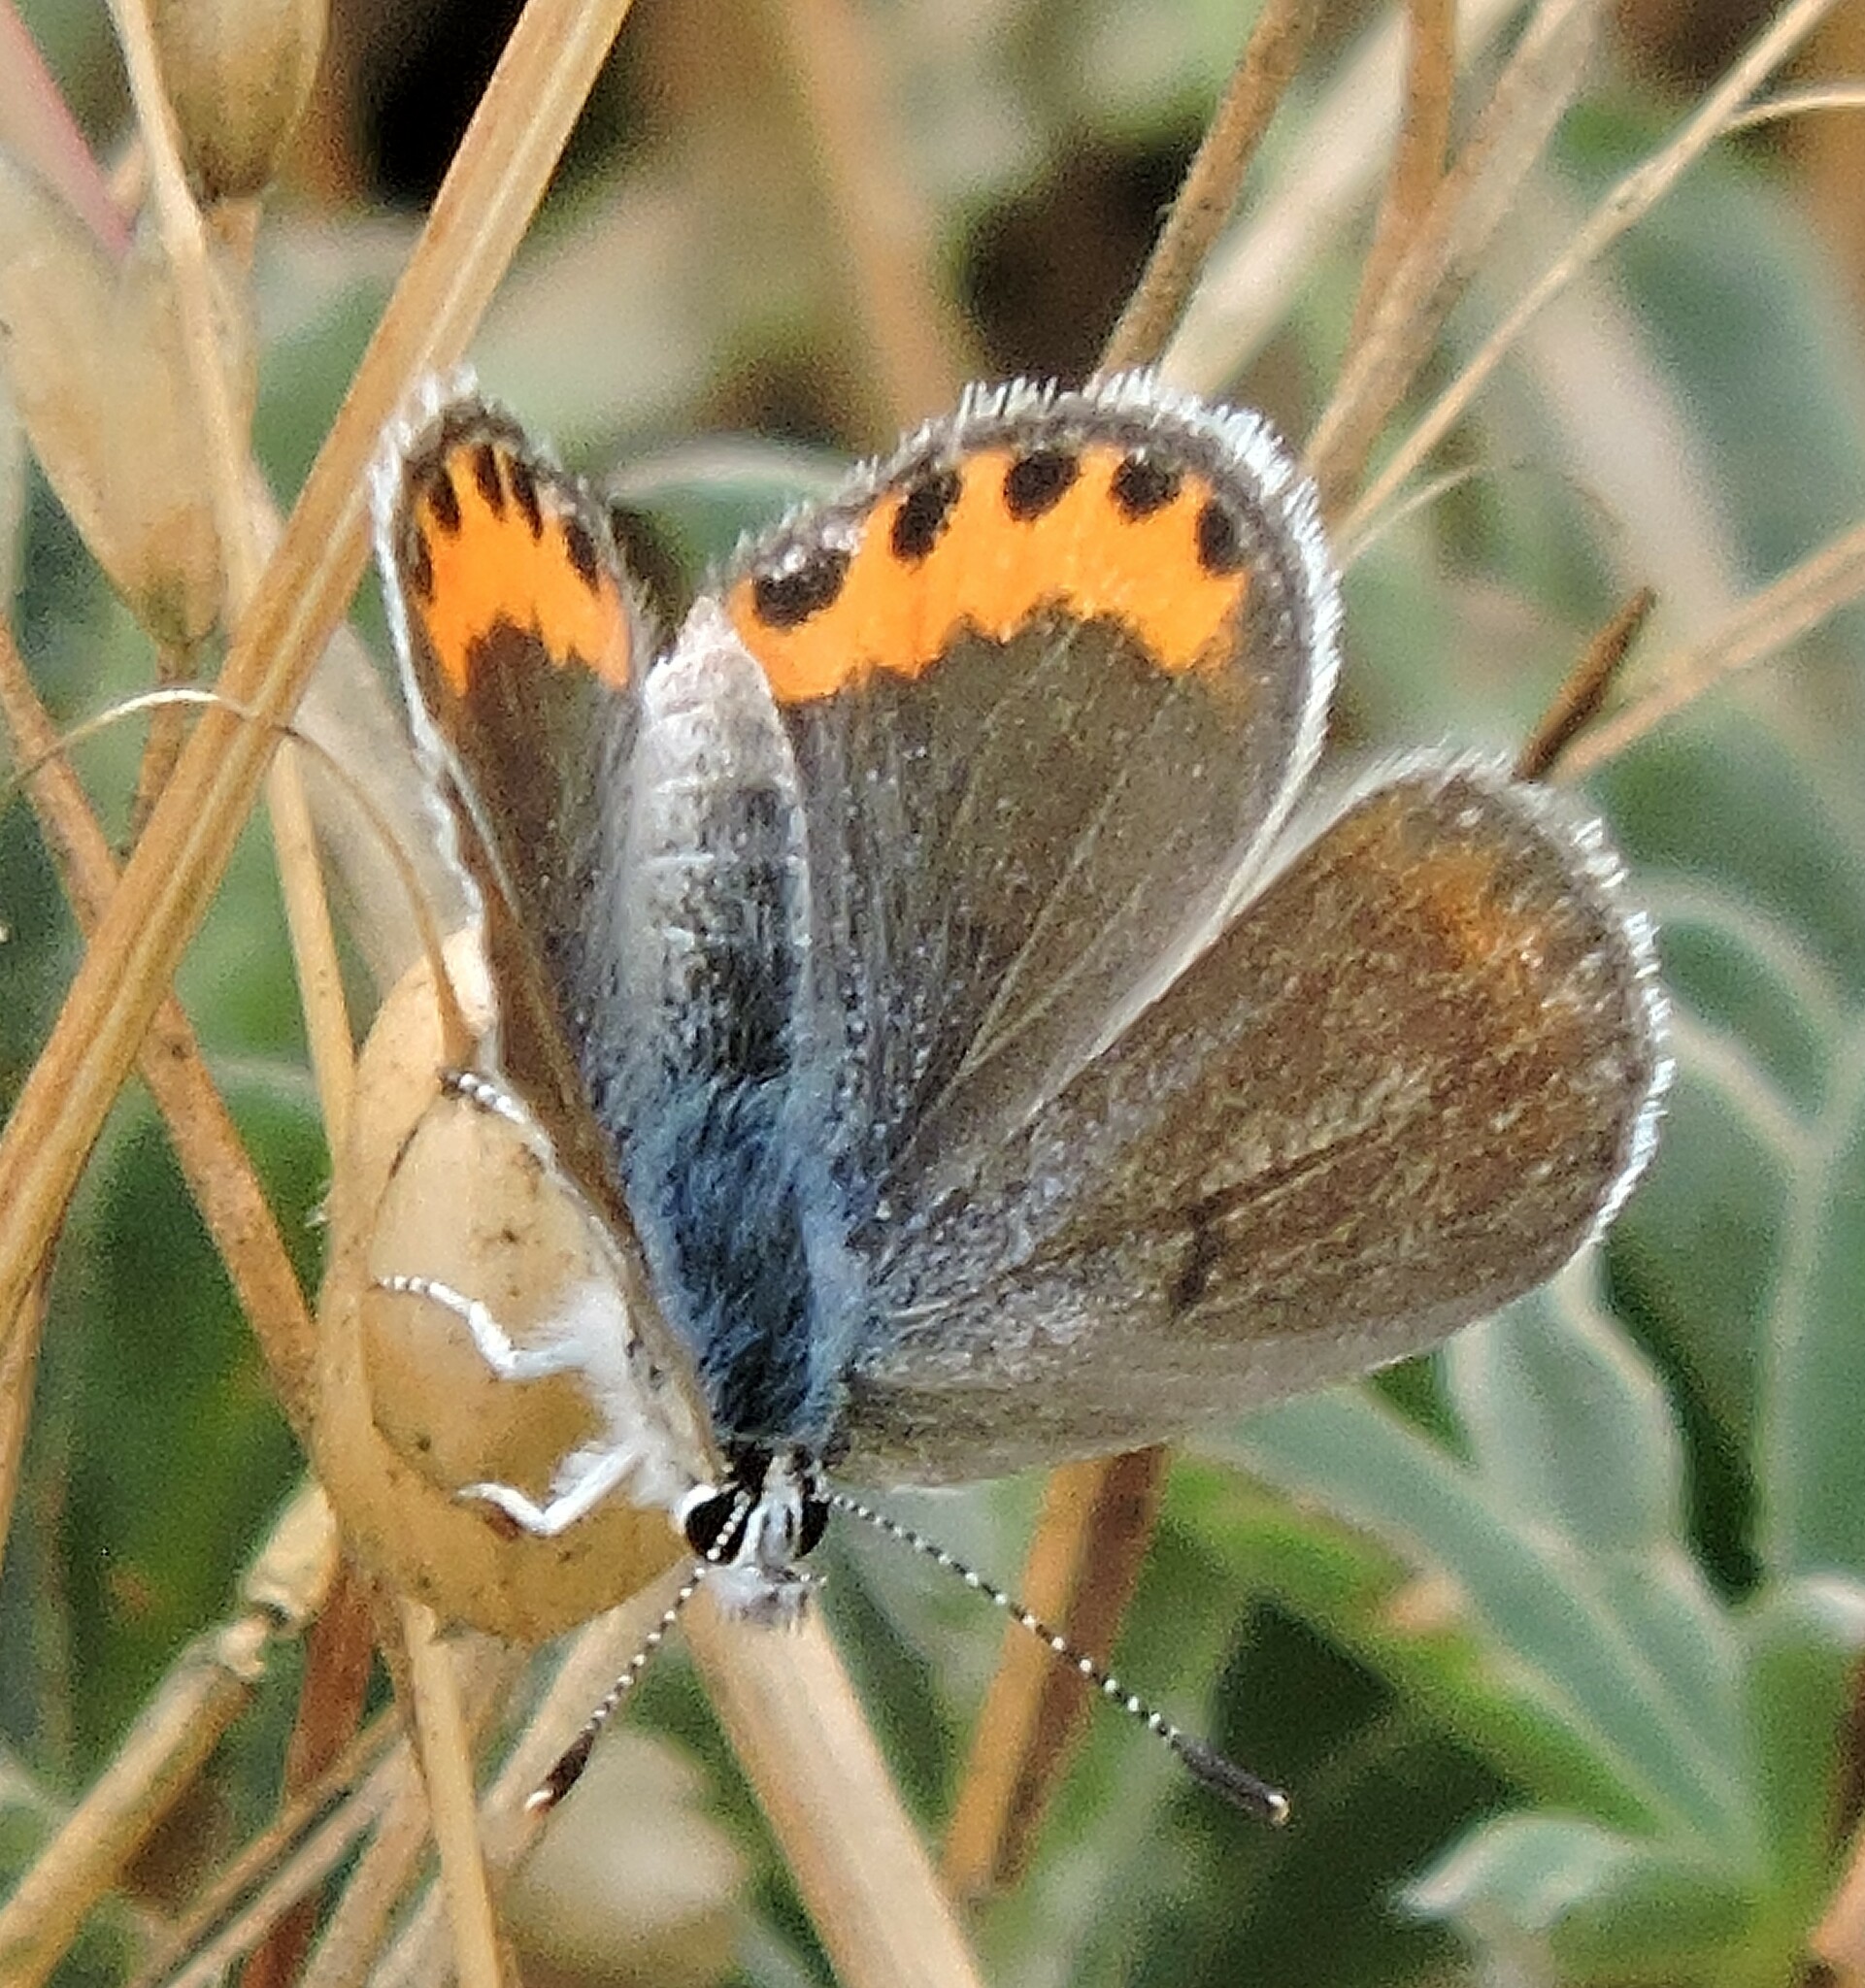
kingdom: Animalia
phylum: Arthropoda
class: Insecta
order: Lepidoptera
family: Lycaenidae
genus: Icaricia
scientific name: Icaricia acmon
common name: Acmon blue
